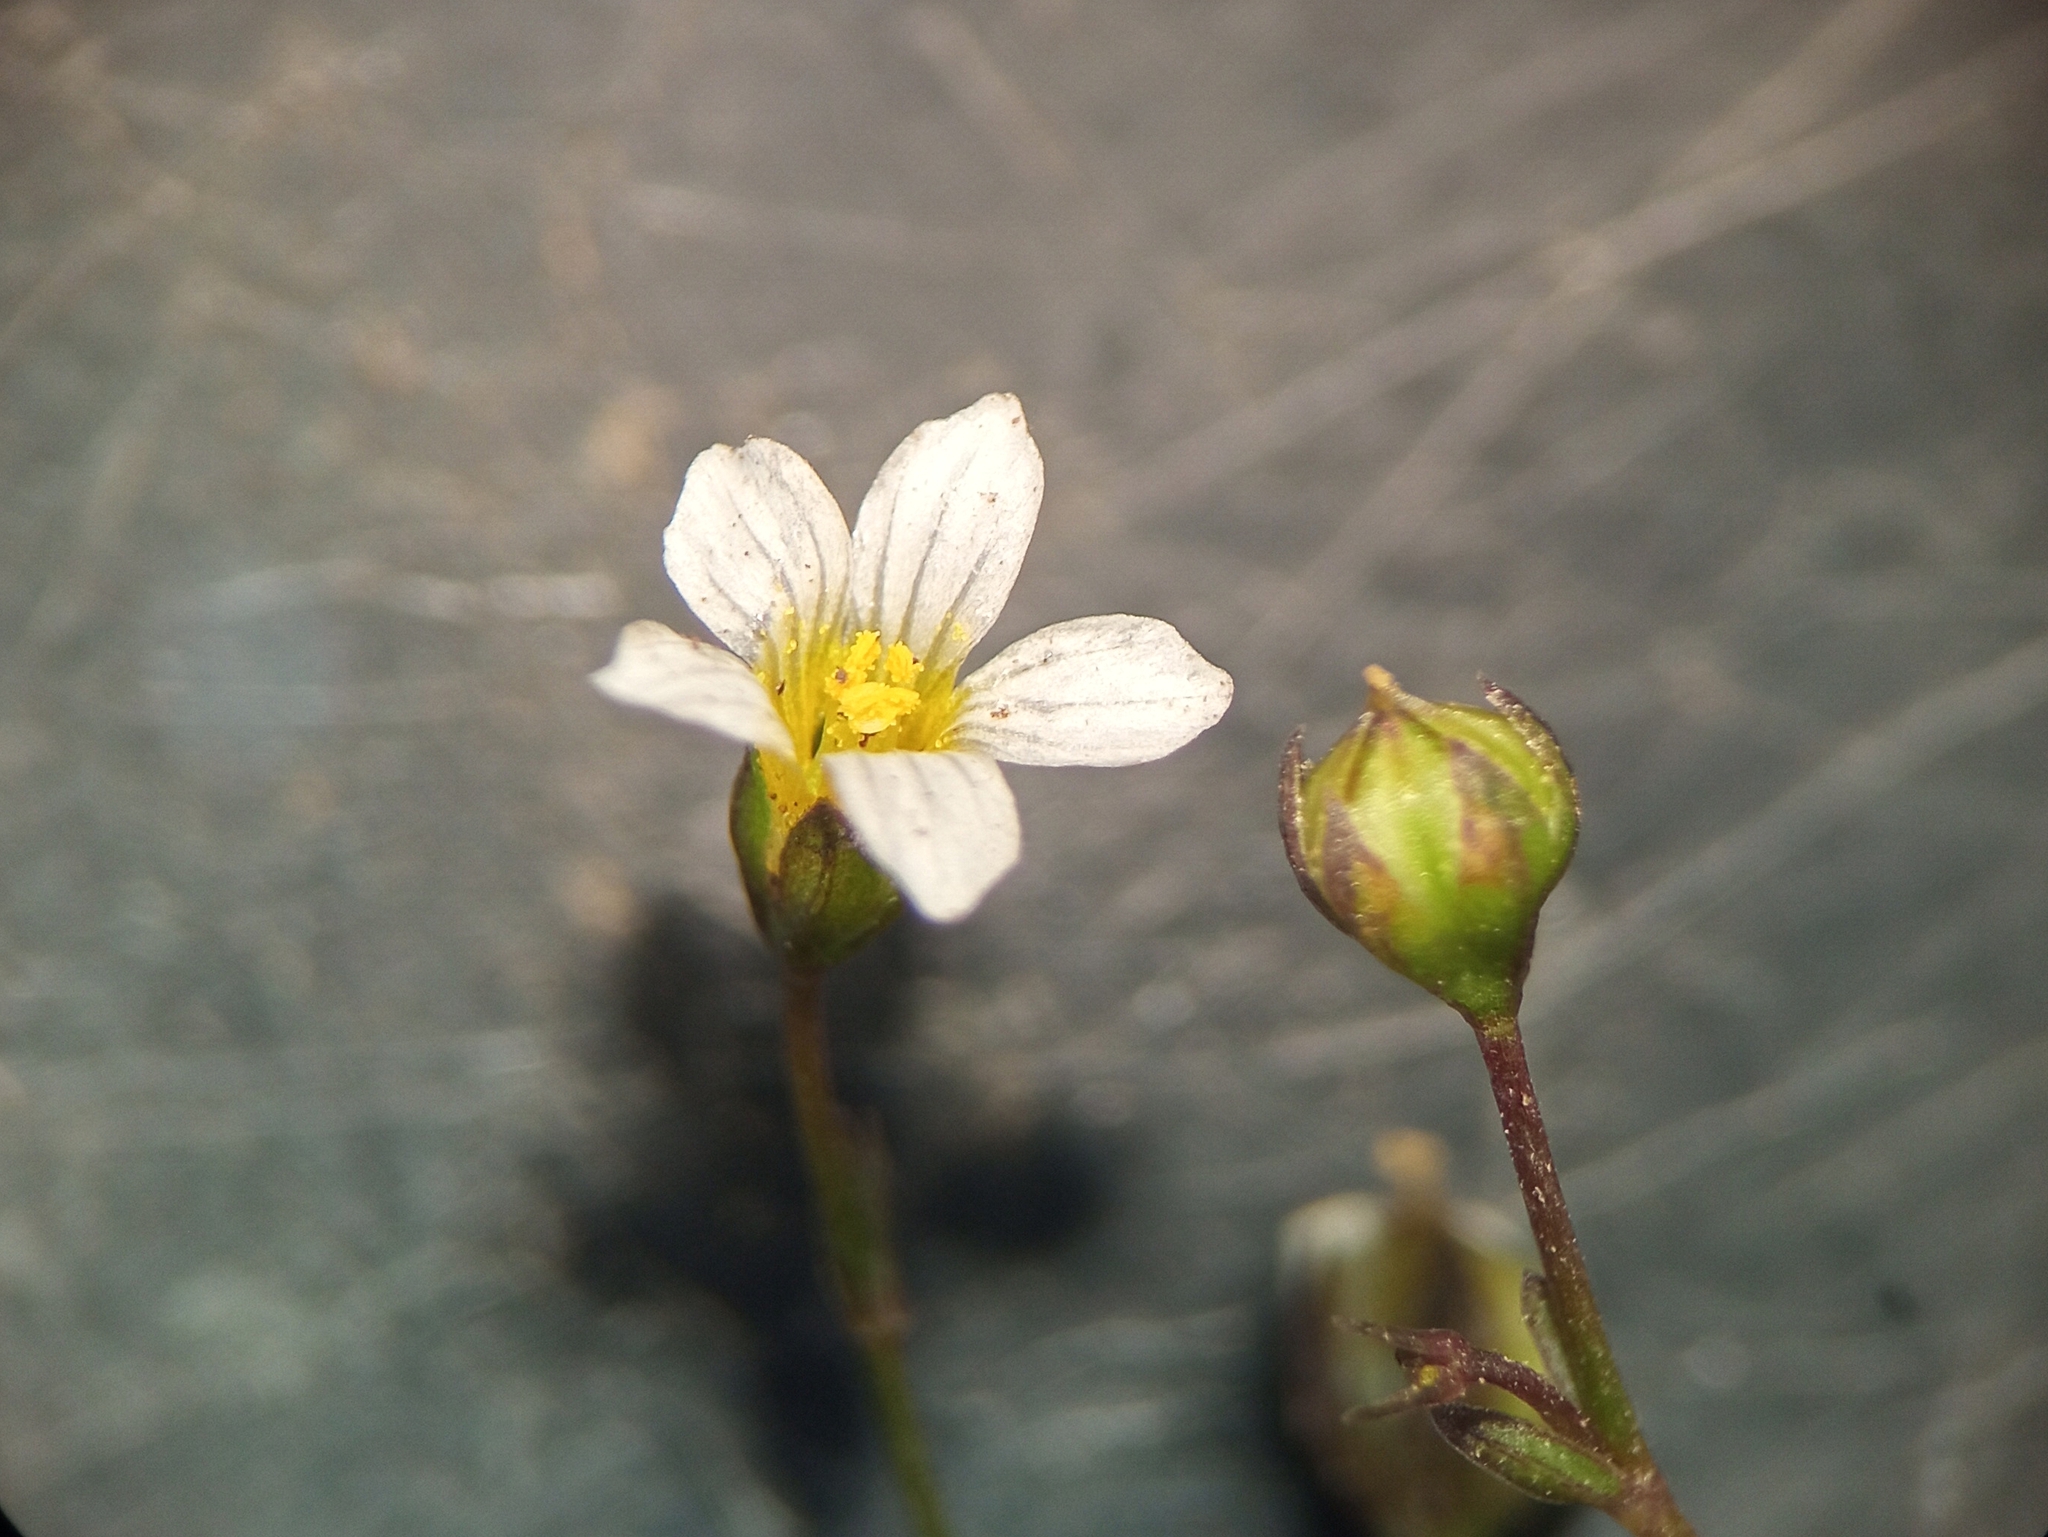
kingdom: Plantae
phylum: Tracheophyta
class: Magnoliopsida
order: Malpighiales
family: Linaceae
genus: Linum
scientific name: Linum catharticum
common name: Fairy flax
